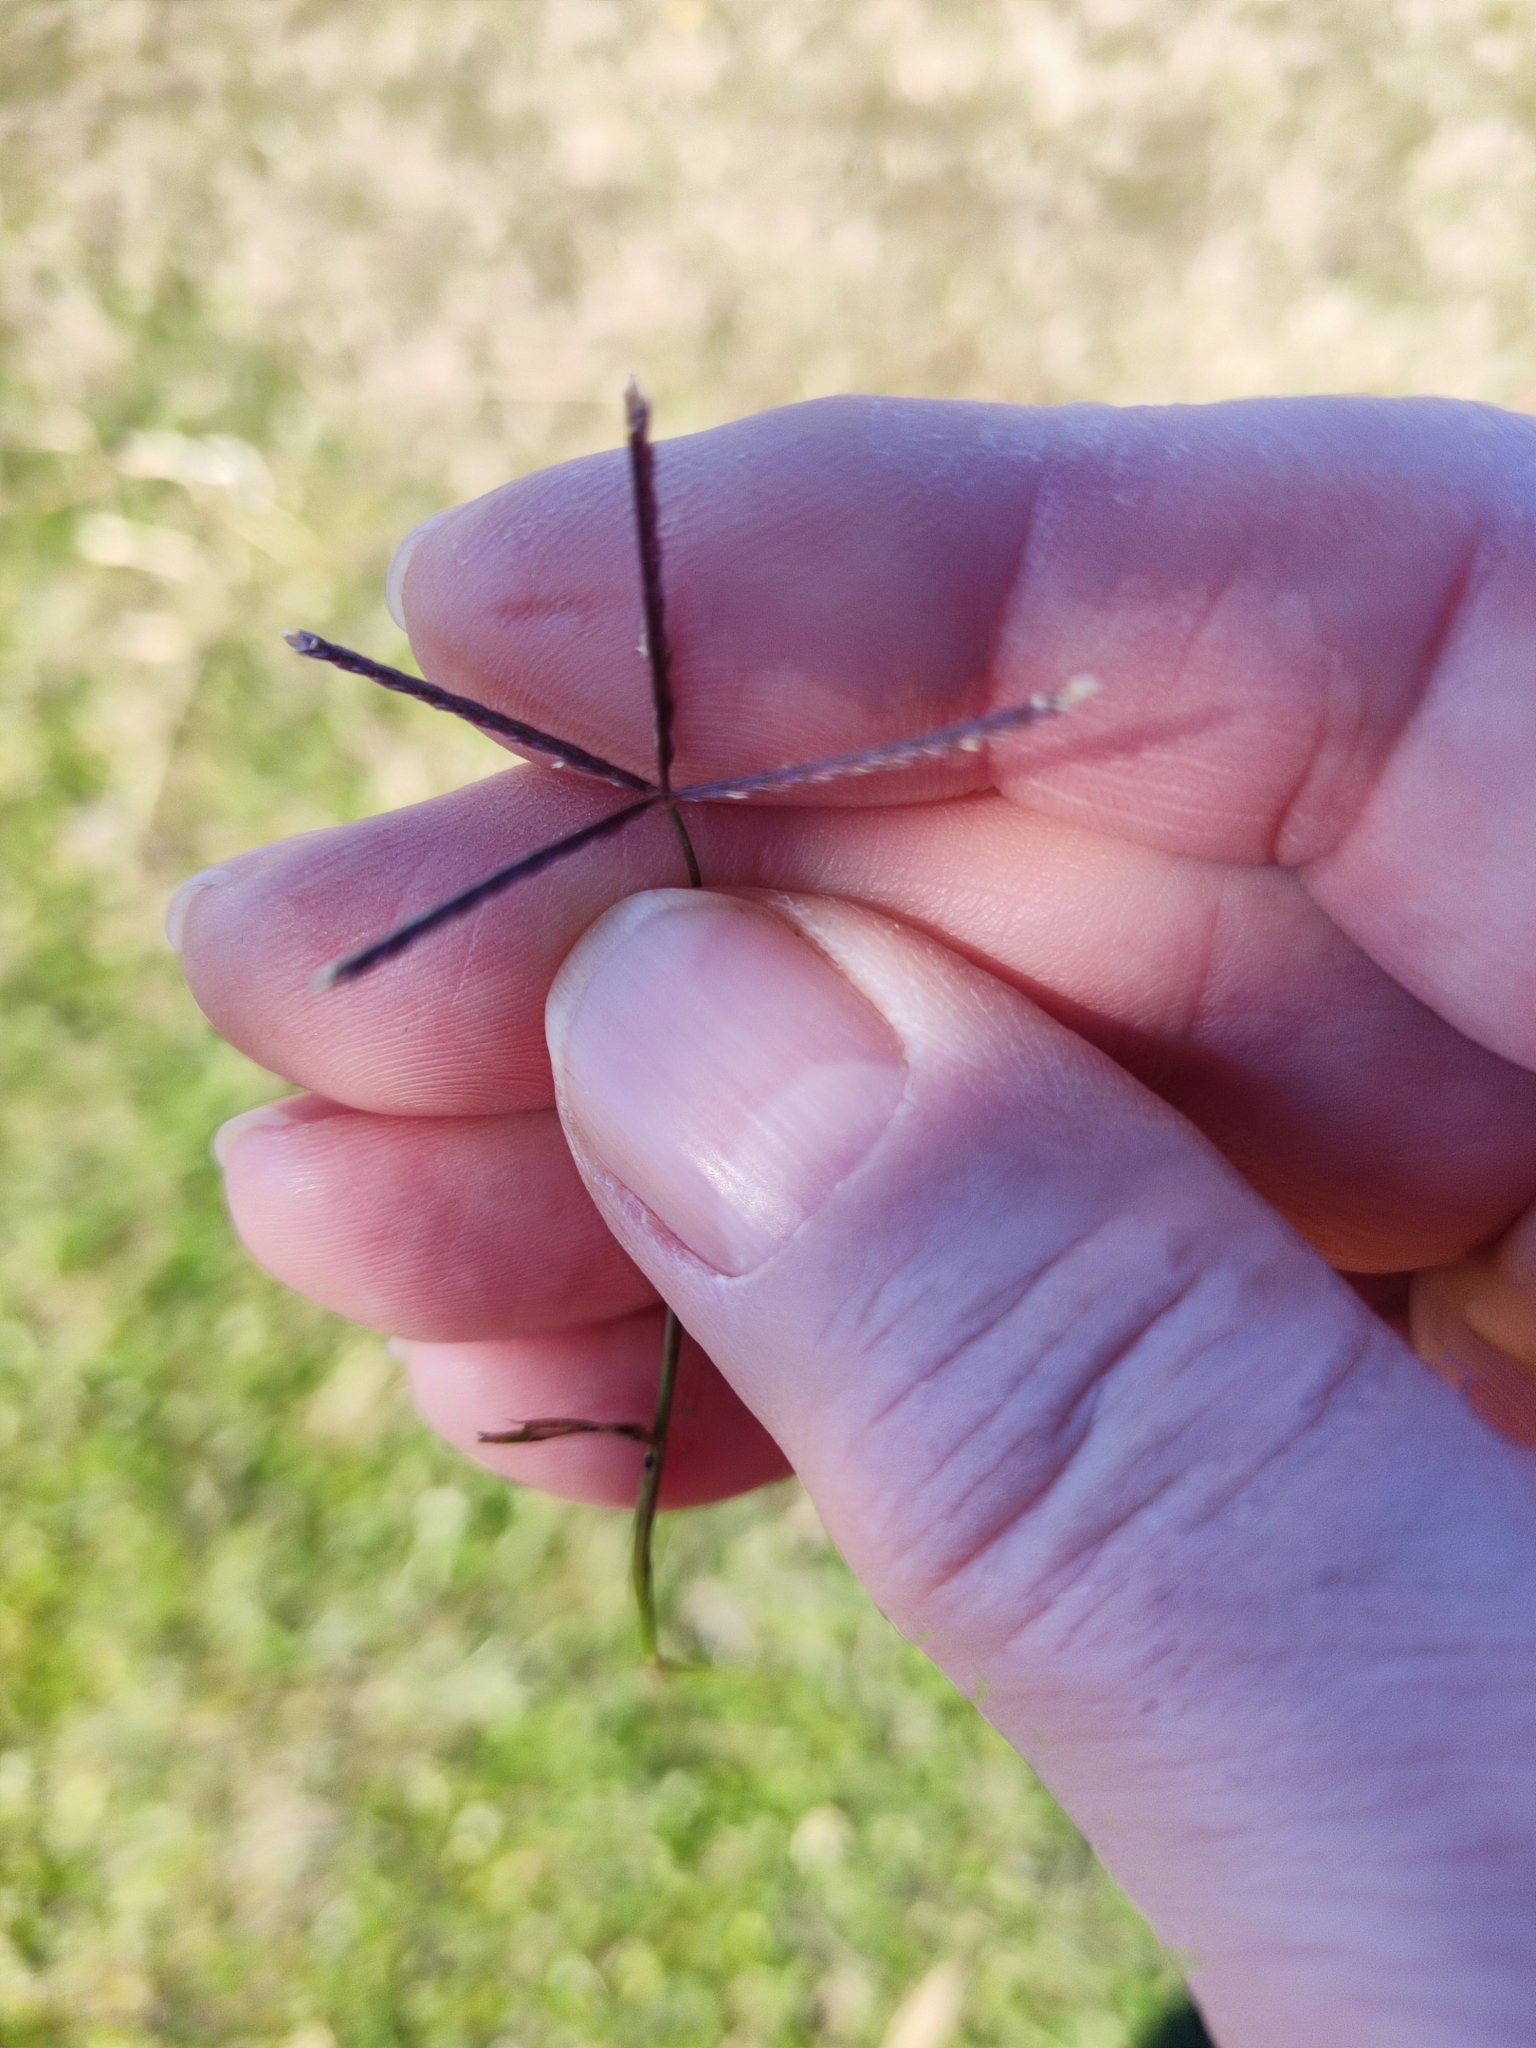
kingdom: Plantae
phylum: Tracheophyta
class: Liliopsida
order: Poales
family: Poaceae
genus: Cynodon
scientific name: Cynodon dactylon
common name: Bermuda grass
